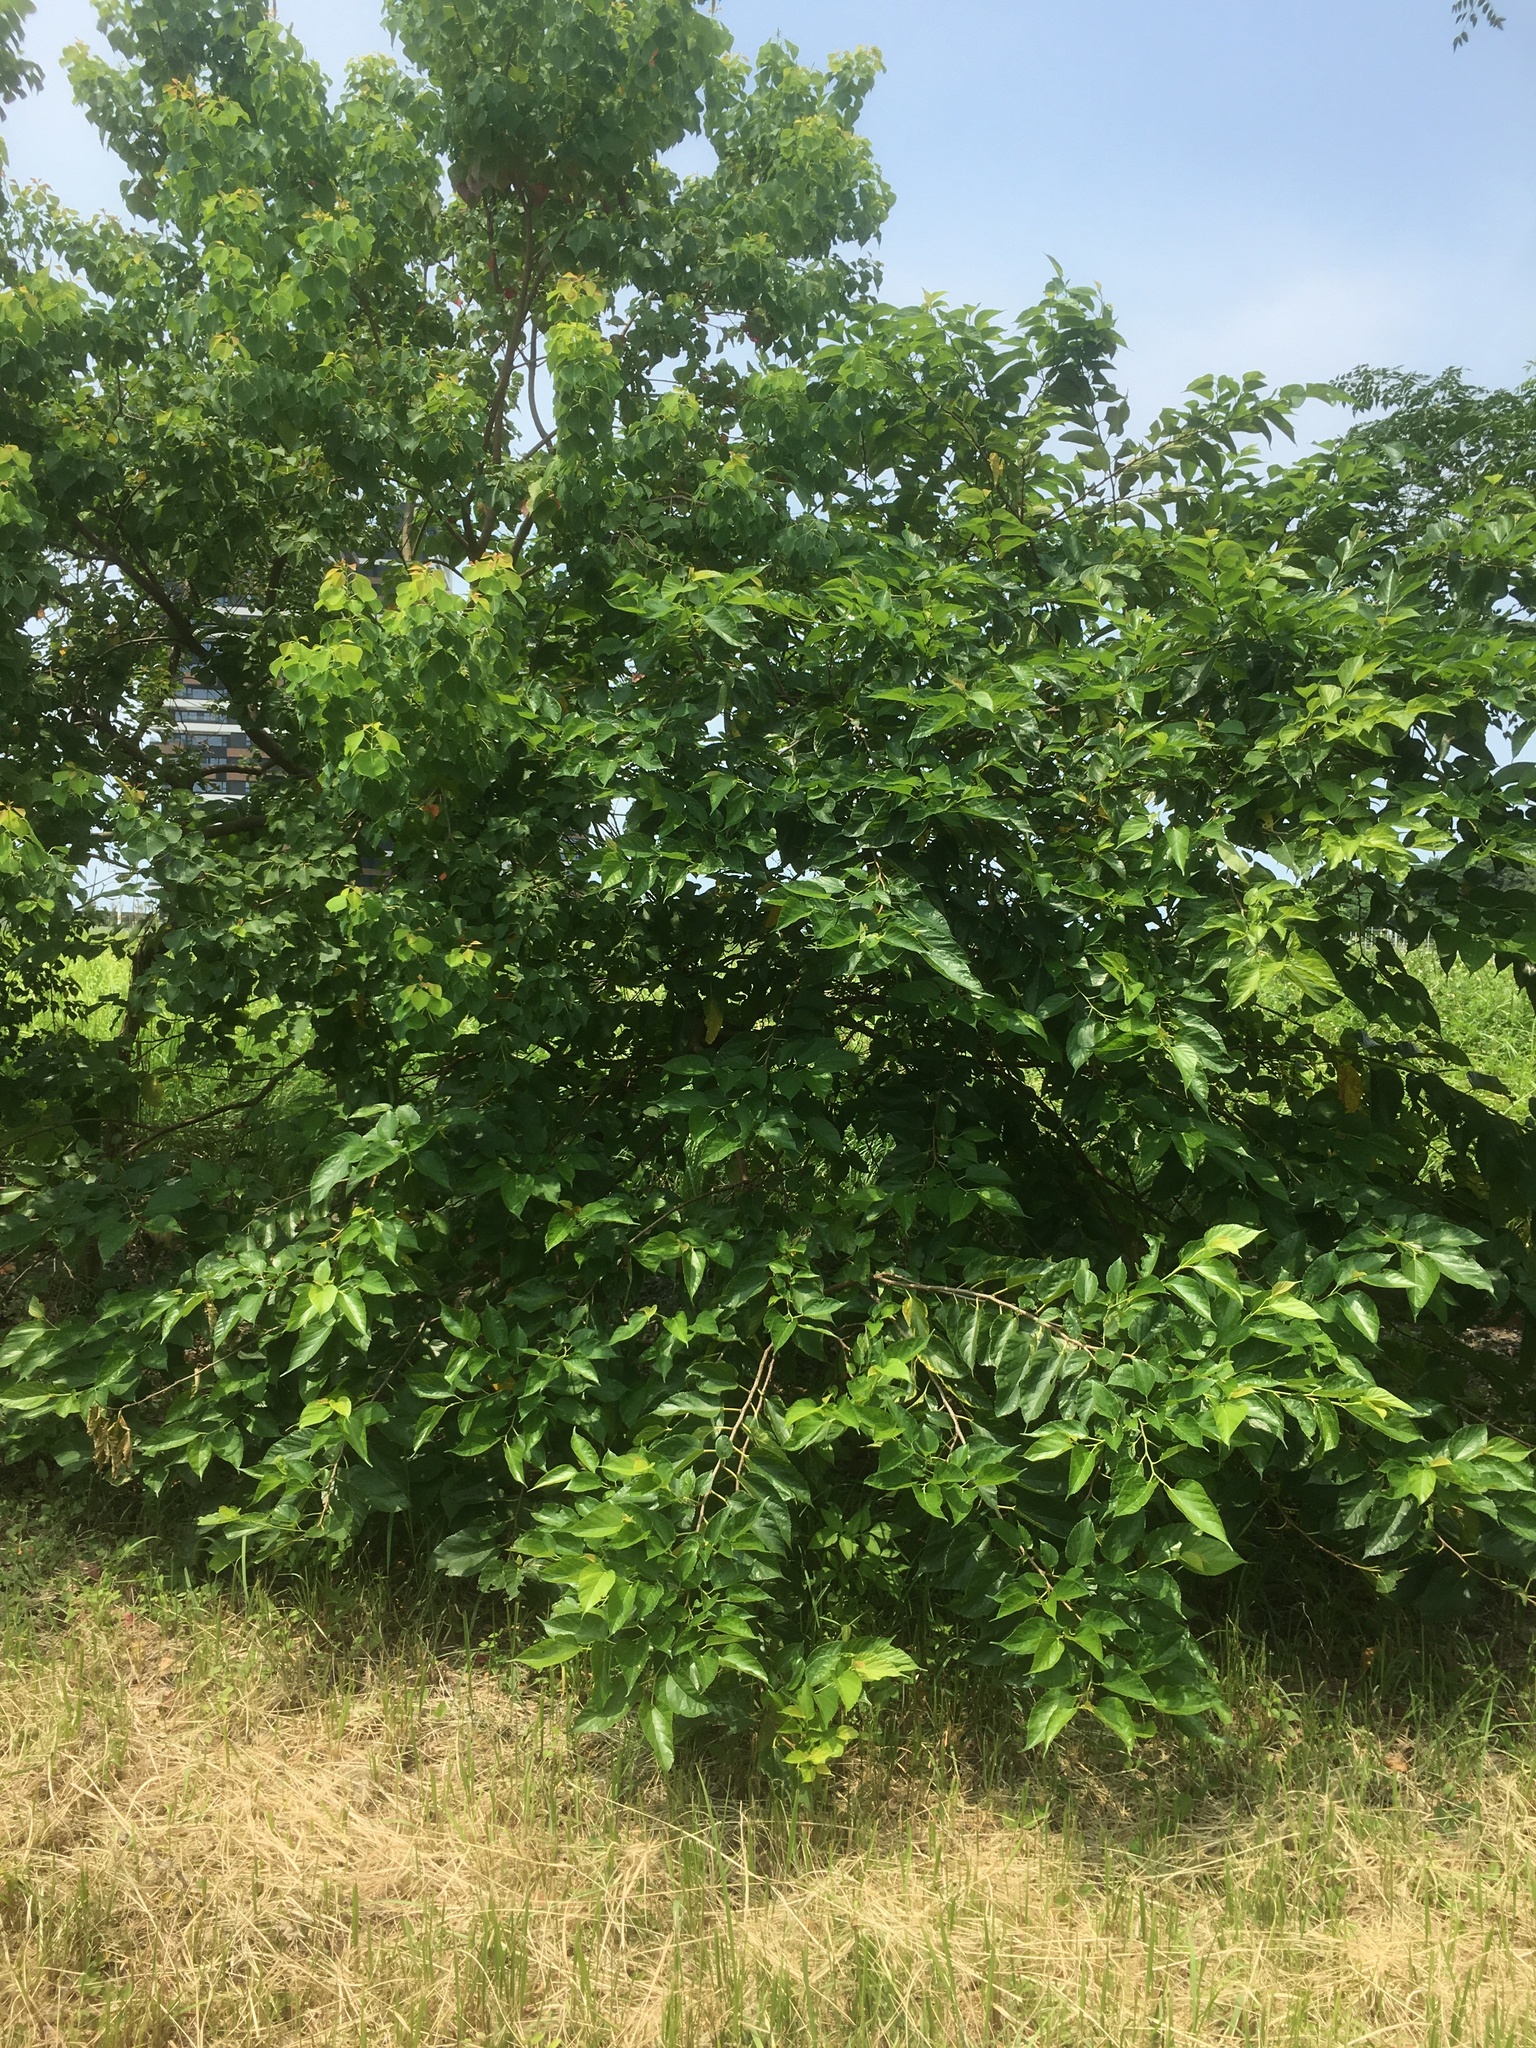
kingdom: Plantae
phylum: Tracheophyta
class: Magnoliopsida
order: Rosales
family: Moraceae
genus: Morus
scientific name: Morus indica
